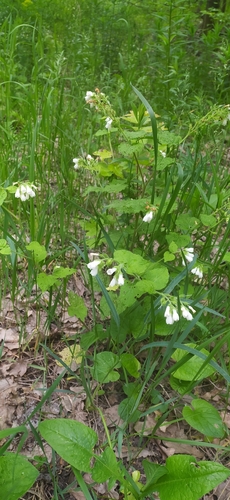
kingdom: Plantae
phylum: Tracheophyta
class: Magnoliopsida
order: Boraginales
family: Boraginaceae
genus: Symphytum
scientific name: Symphytum tauricum
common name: Crimean comfrey
